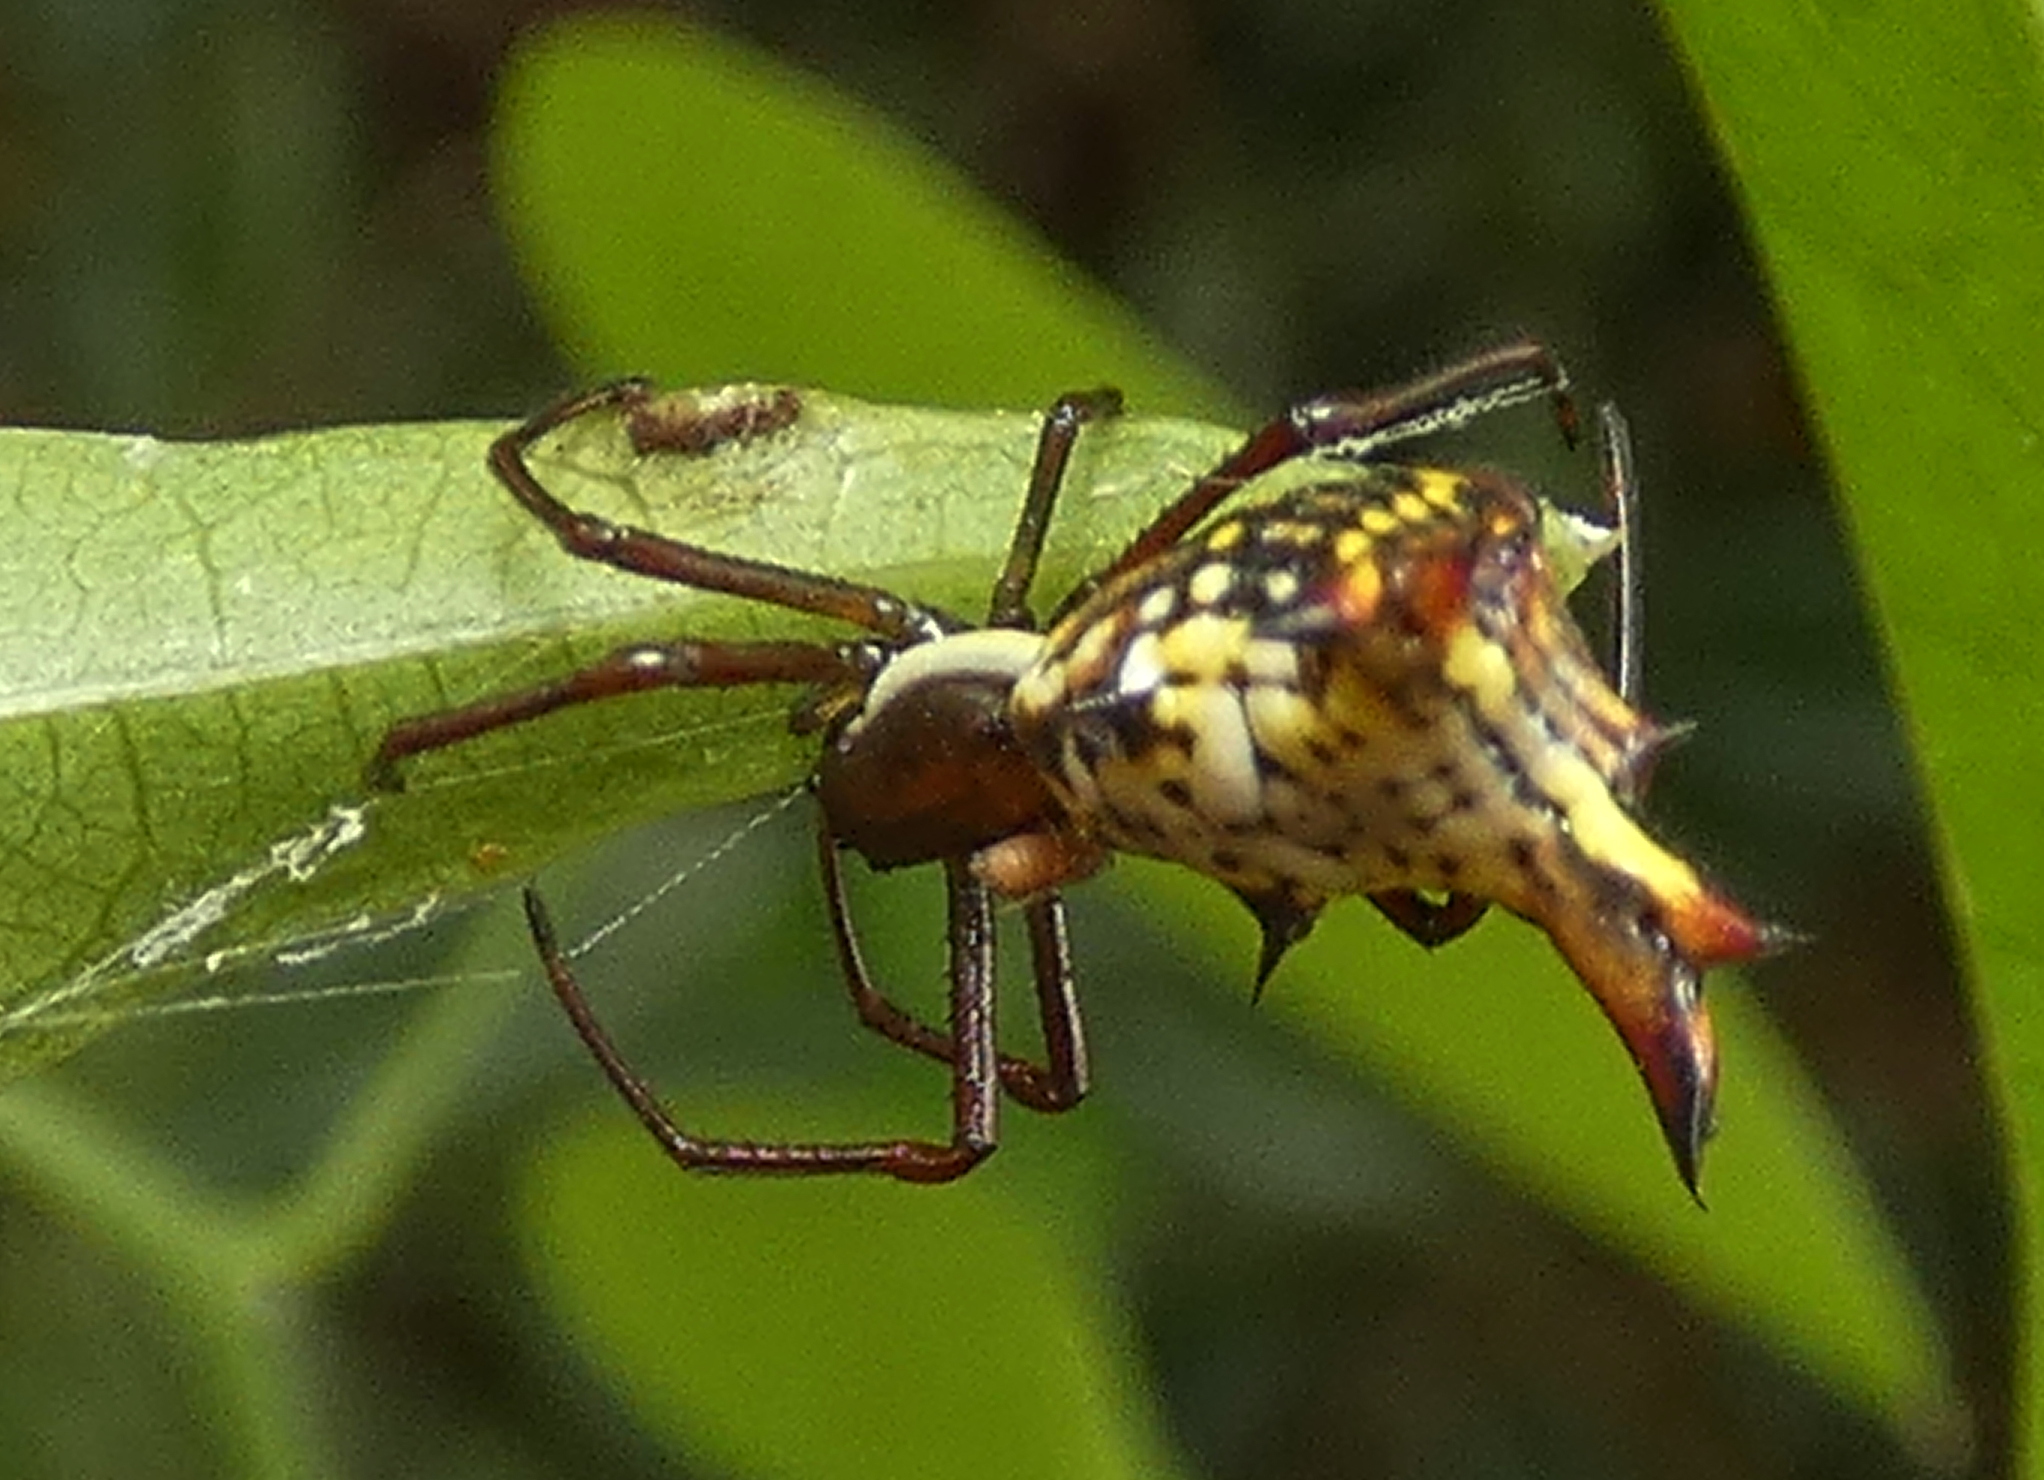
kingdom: Animalia
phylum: Arthropoda
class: Arachnida
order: Araneae
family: Araneidae
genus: Micrathena
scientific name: Micrathena fissispina
